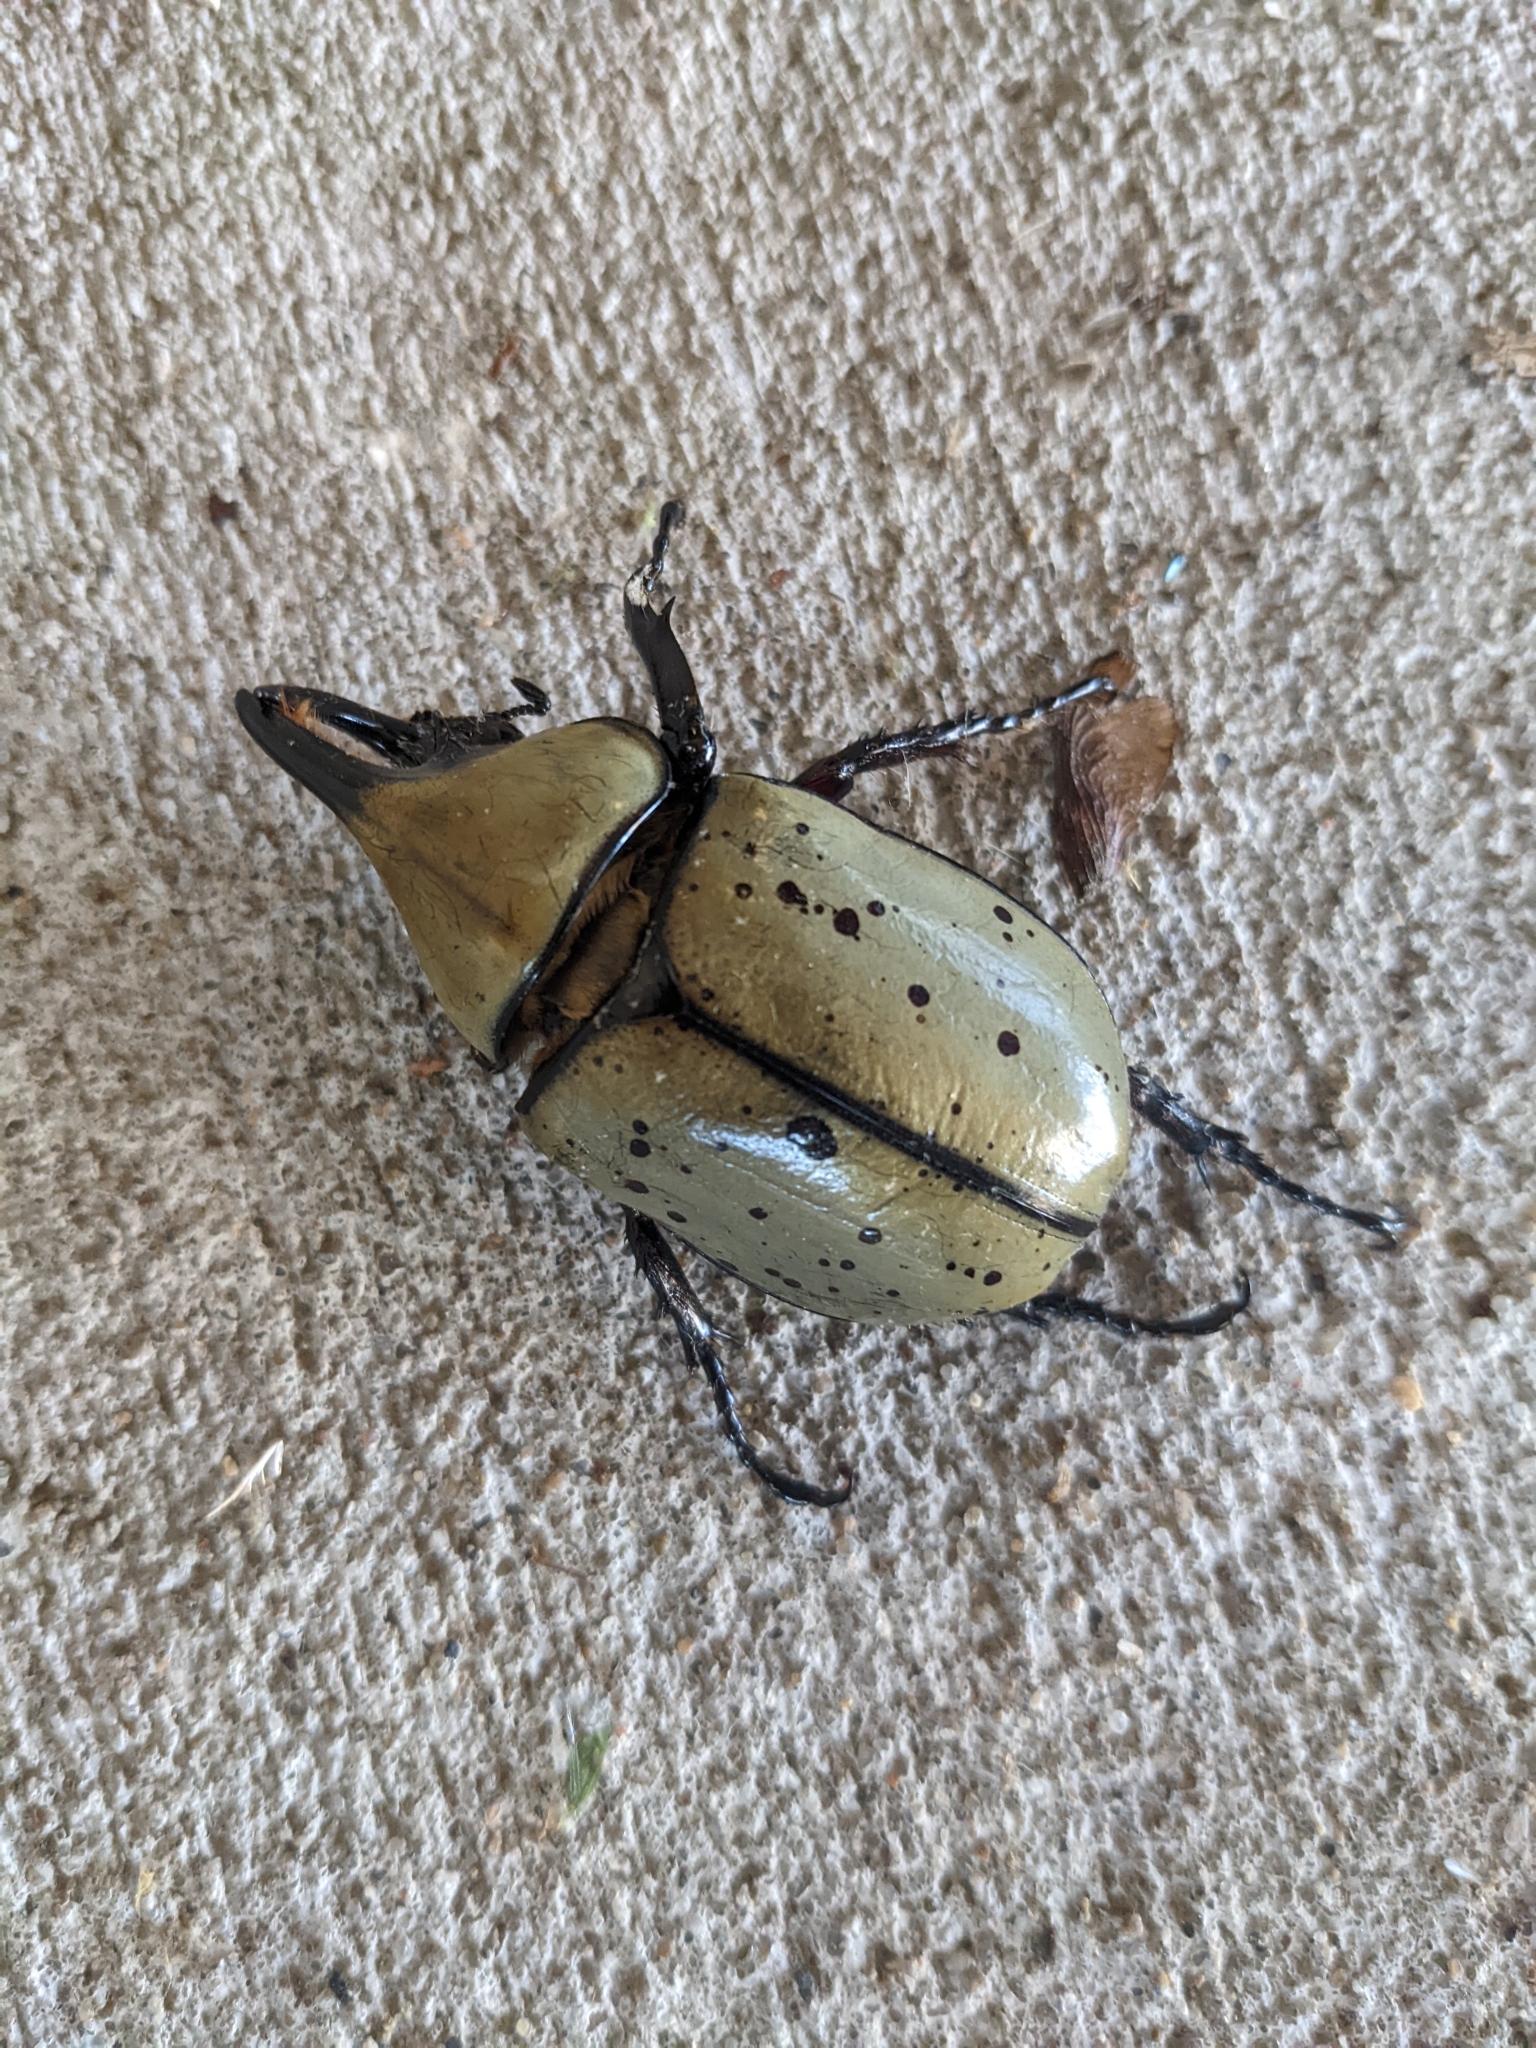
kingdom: Animalia
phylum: Arthropoda
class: Insecta
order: Coleoptera
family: Scarabaeidae
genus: Dynastes
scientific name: Dynastes tityus
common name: Eastern hercules beetle
